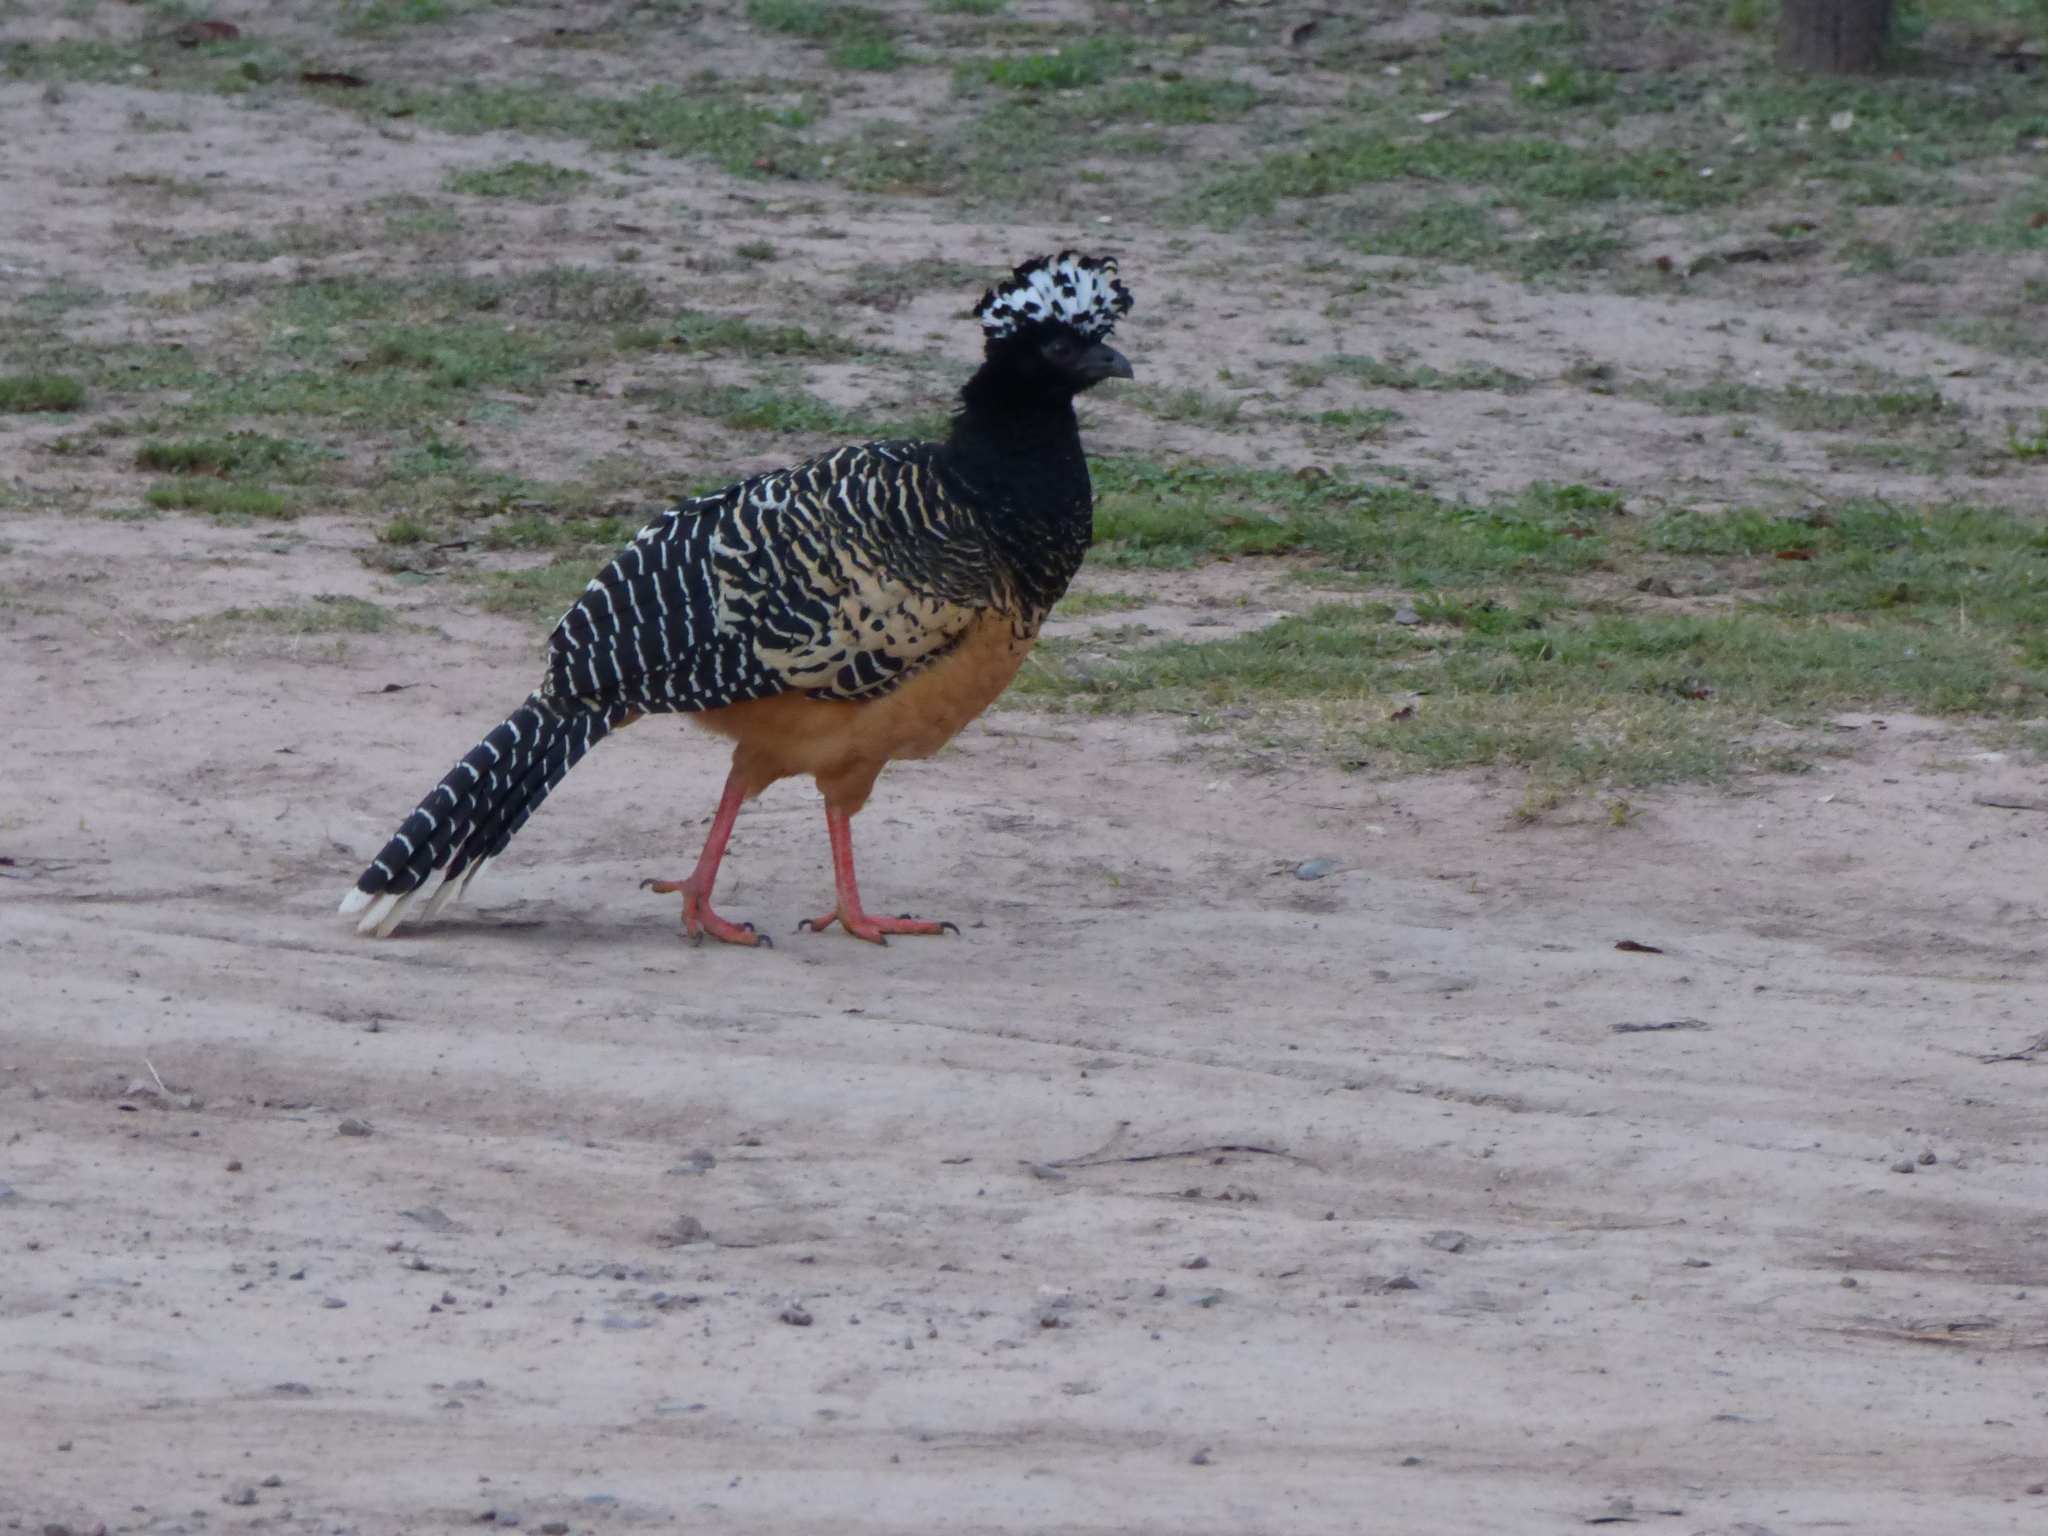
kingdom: Animalia
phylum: Chordata
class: Aves
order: Galliformes
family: Cracidae
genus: Crax
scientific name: Crax fasciolata
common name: Bare-faced curassow
